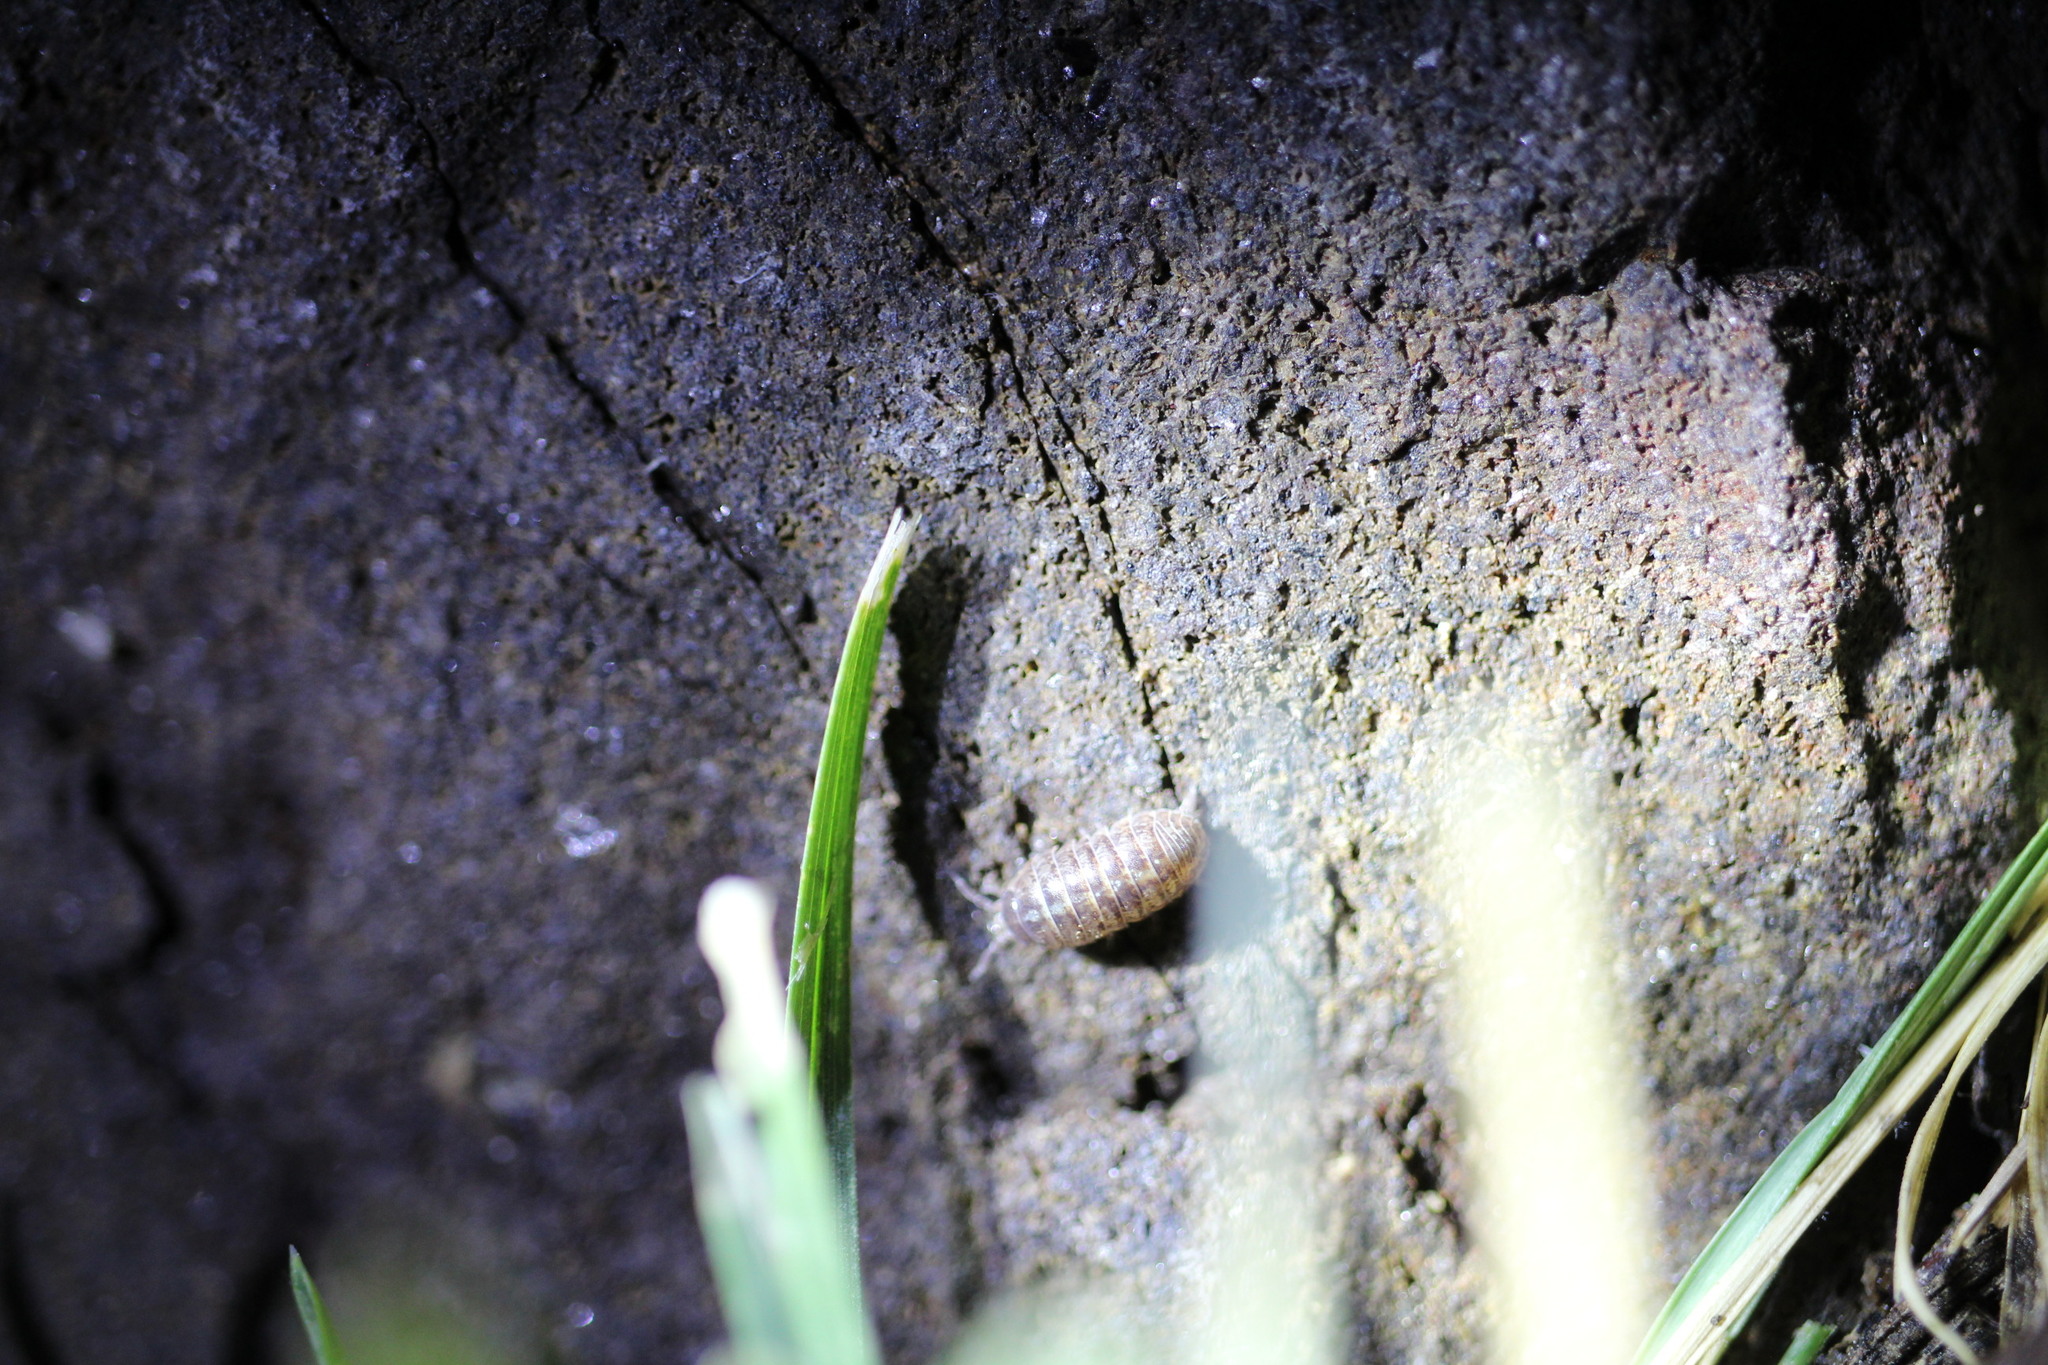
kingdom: Animalia
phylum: Arthropoda
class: Malacostraca
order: Isopoda
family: Armadillidiidae
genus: Armadillidium
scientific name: Armadillidium vulgare
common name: Common pill woodlouse
